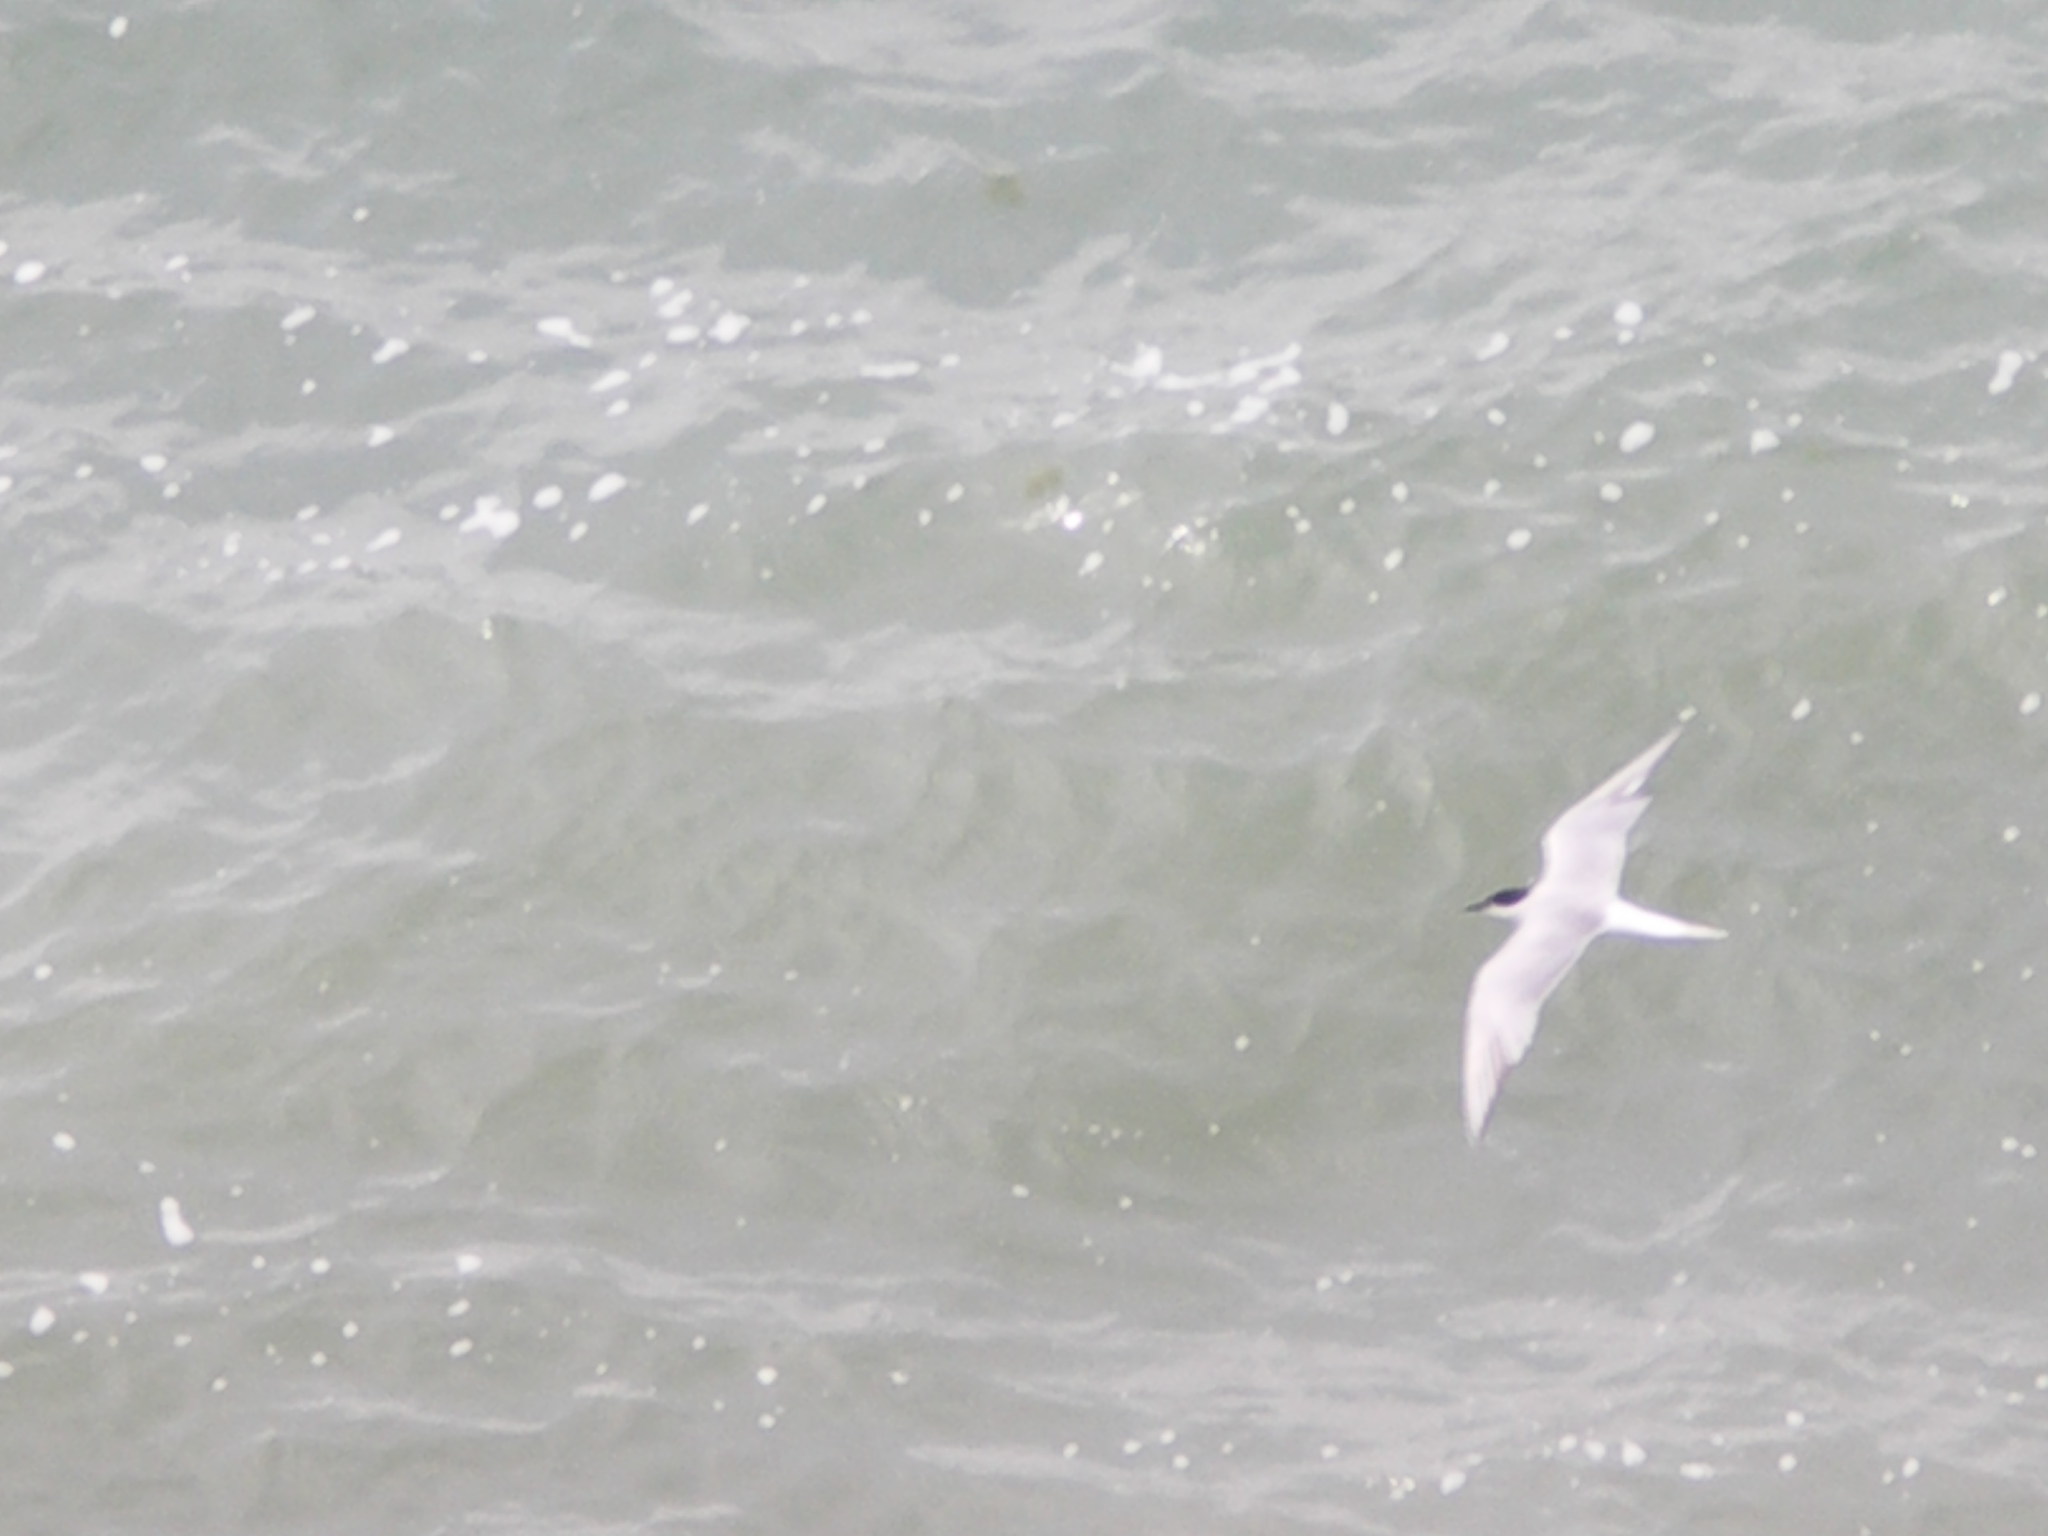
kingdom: Animalia
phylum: Chordata
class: Aves
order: Charadriiformes
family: Laridae
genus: Sterna
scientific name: Sterna hirundo
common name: Common tern
